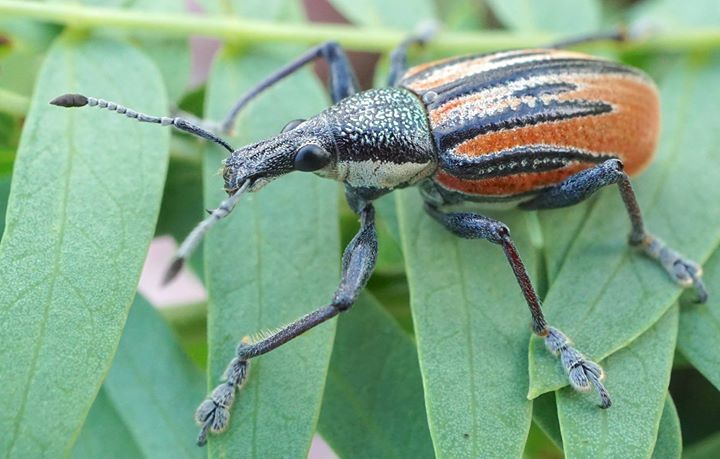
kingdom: Animalia
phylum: Arthropoda
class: Insecta
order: Coleoptera
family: Curculionidae
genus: Diaprepes
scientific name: Diaprepes abbreviatus
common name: Root weevil
